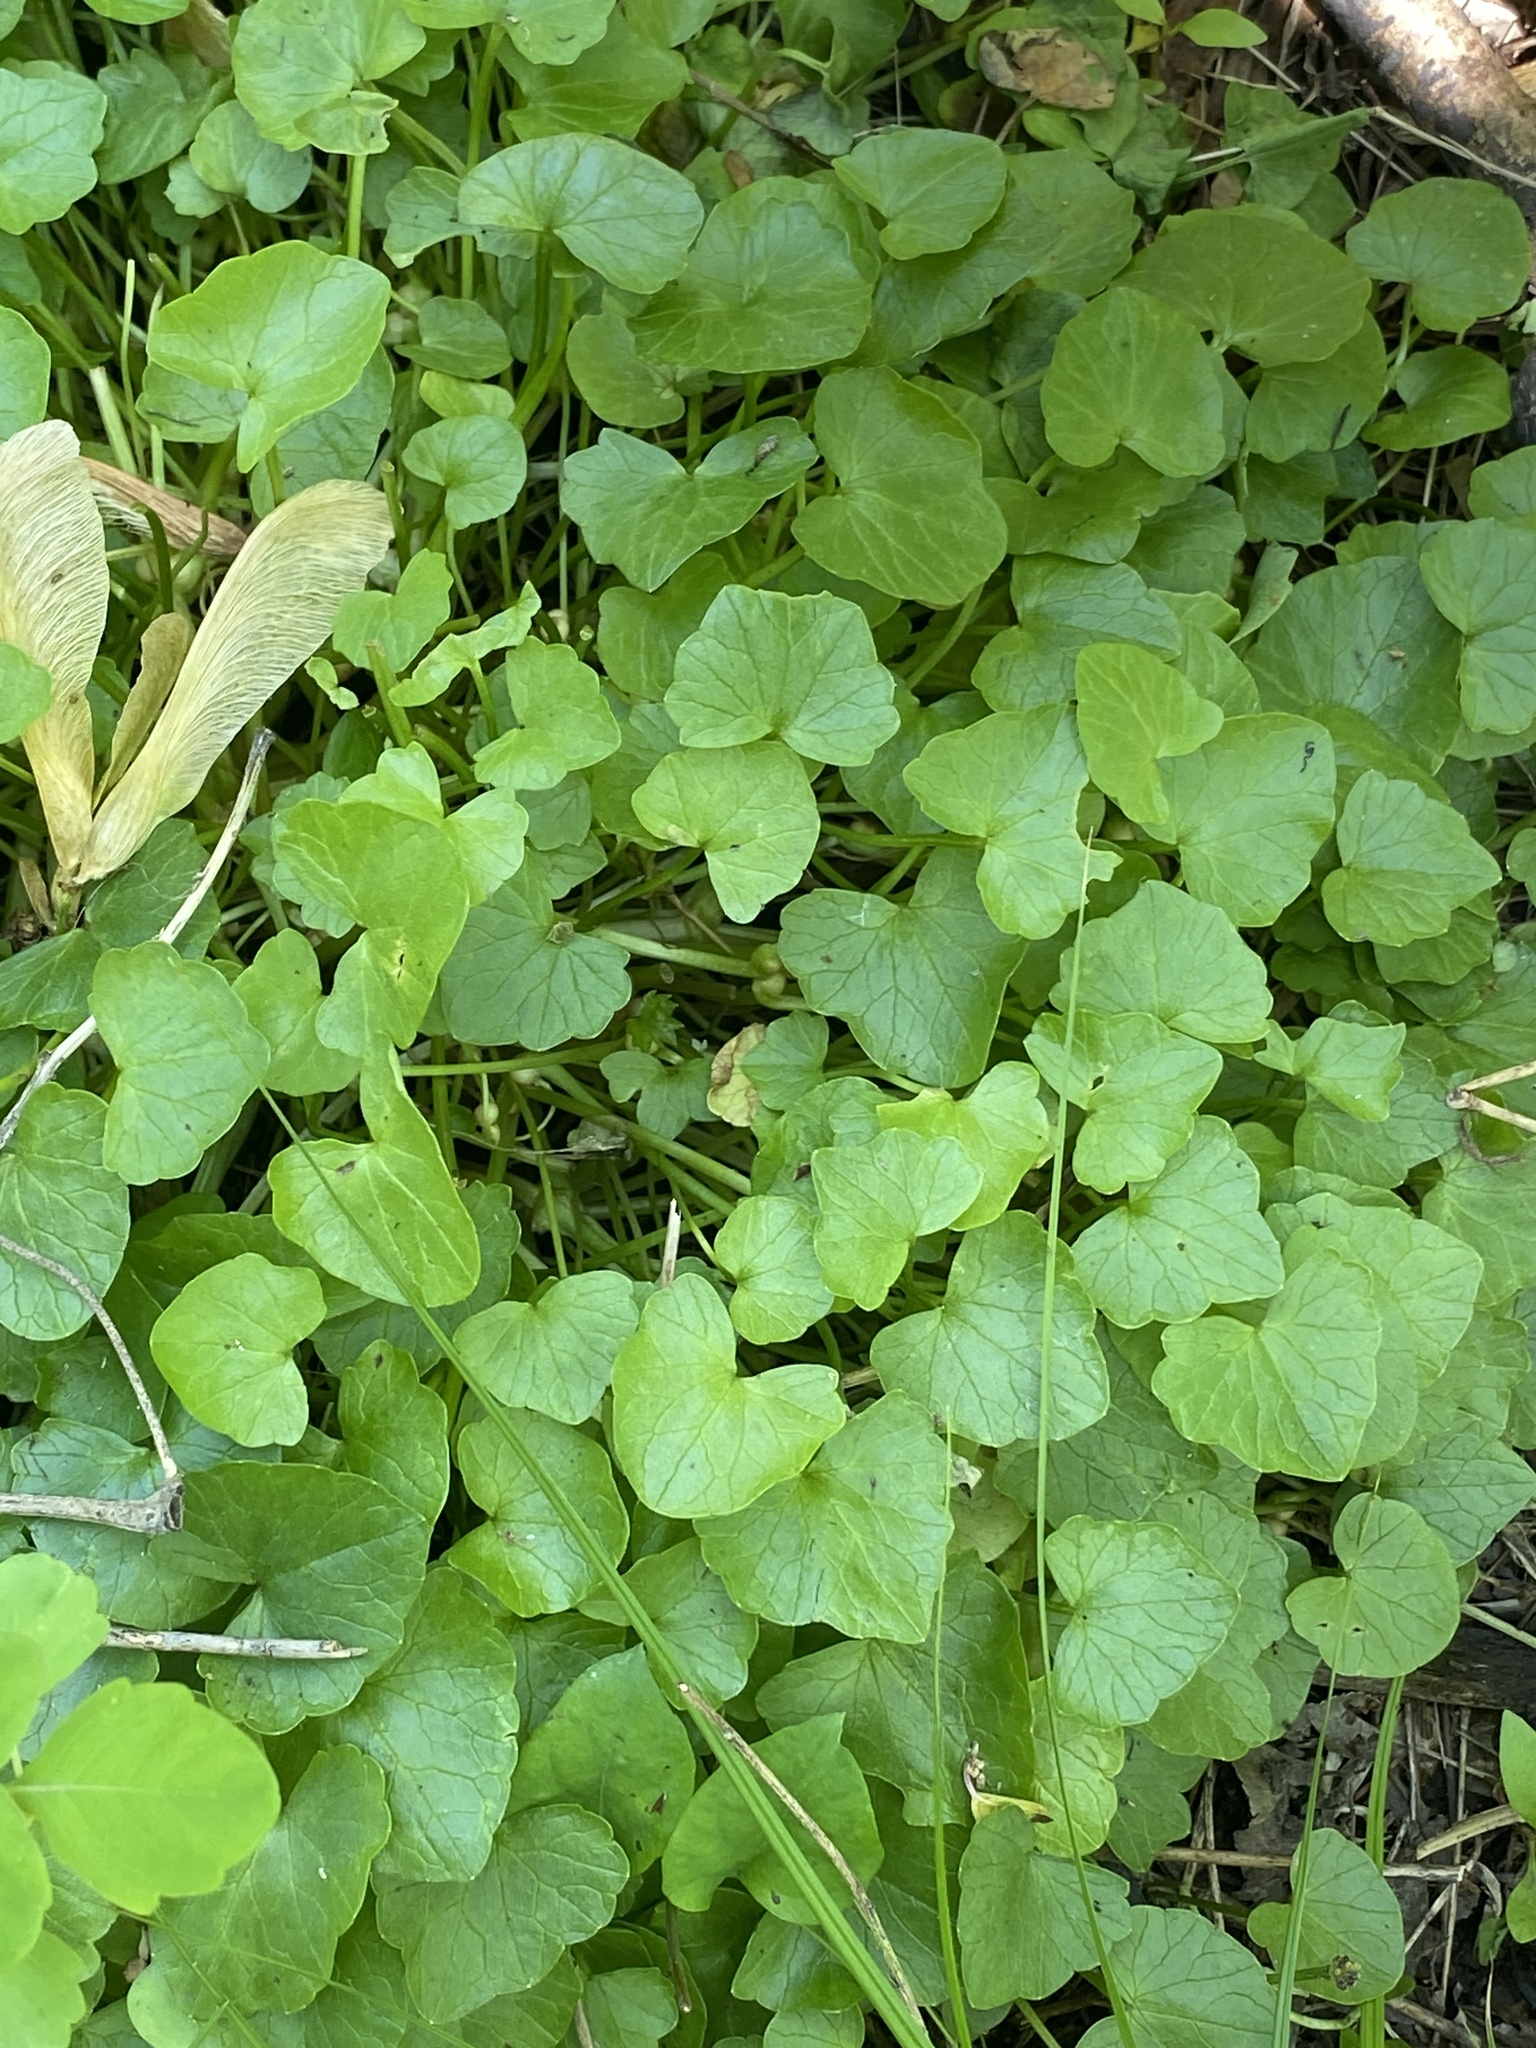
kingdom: Plantae
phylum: Tracheophyta
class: Magnoliopsida
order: Ranunculales
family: Ranunculaceae
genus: Ficaria
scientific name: Ficaria verna
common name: Lesser celandine
